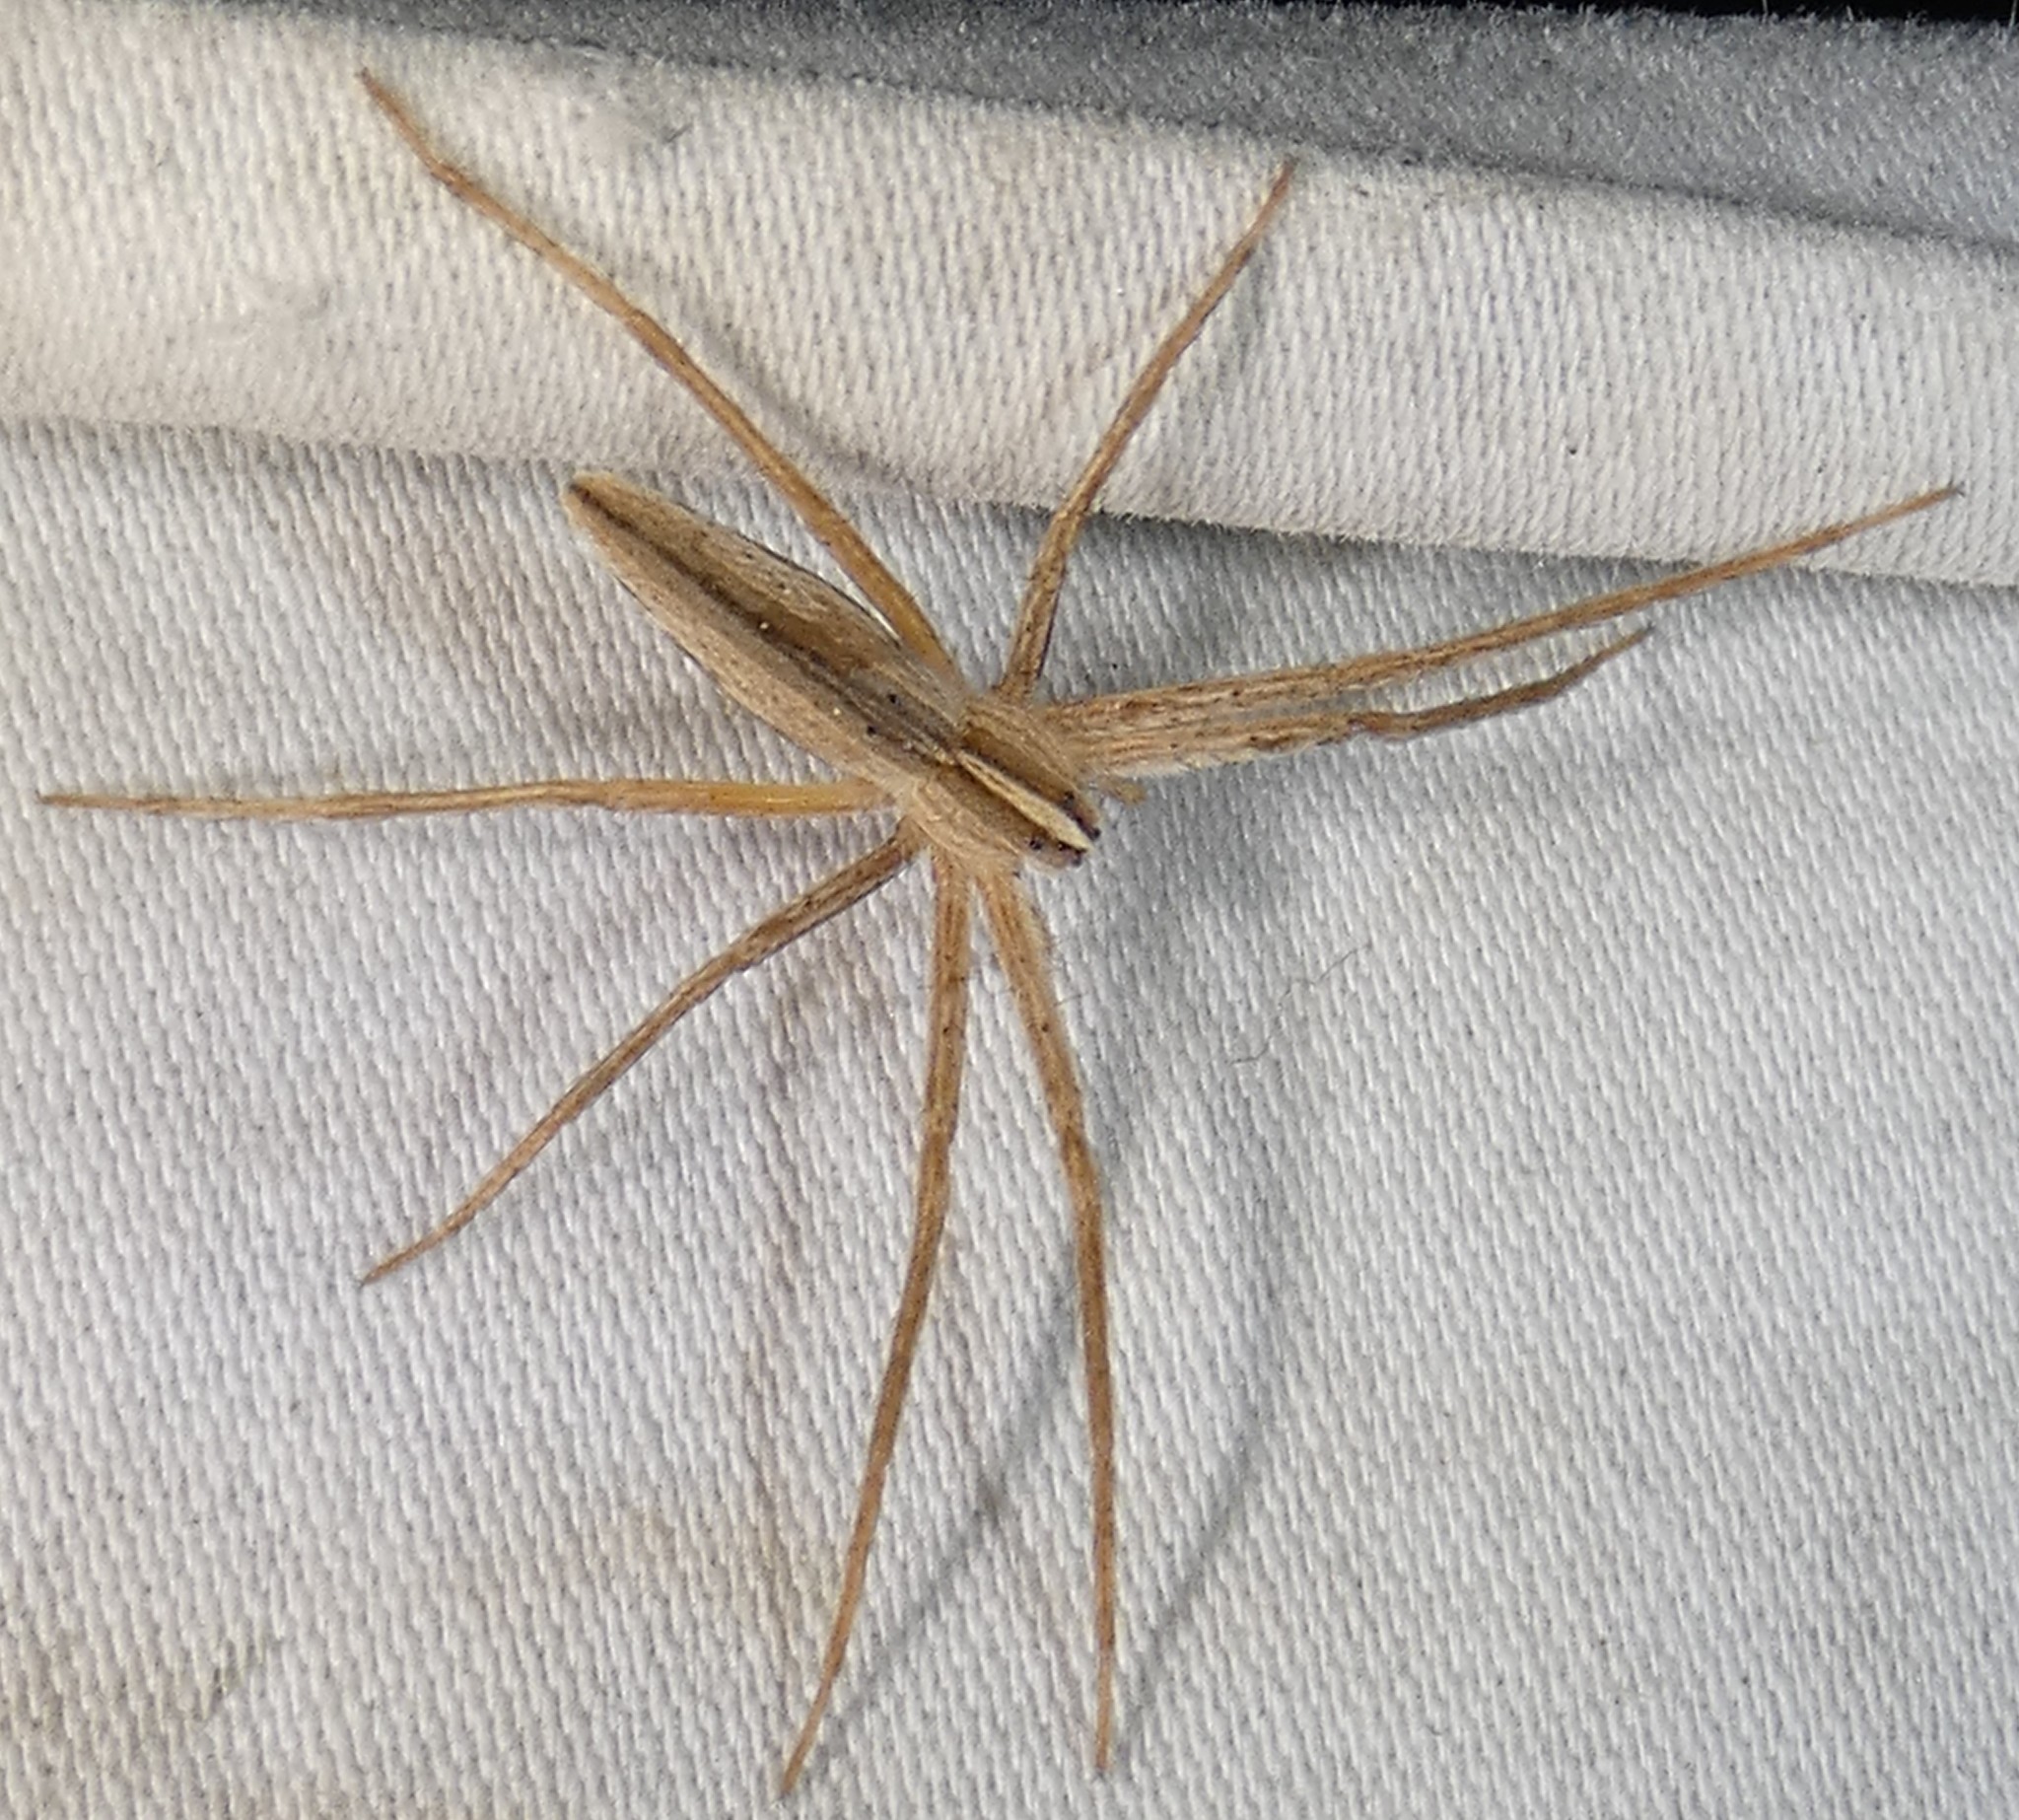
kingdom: Animalia
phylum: Arthropoda
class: Arachnida
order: Araneae
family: Pisauridae
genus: Pisaurina
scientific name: Pisaurina dubia
